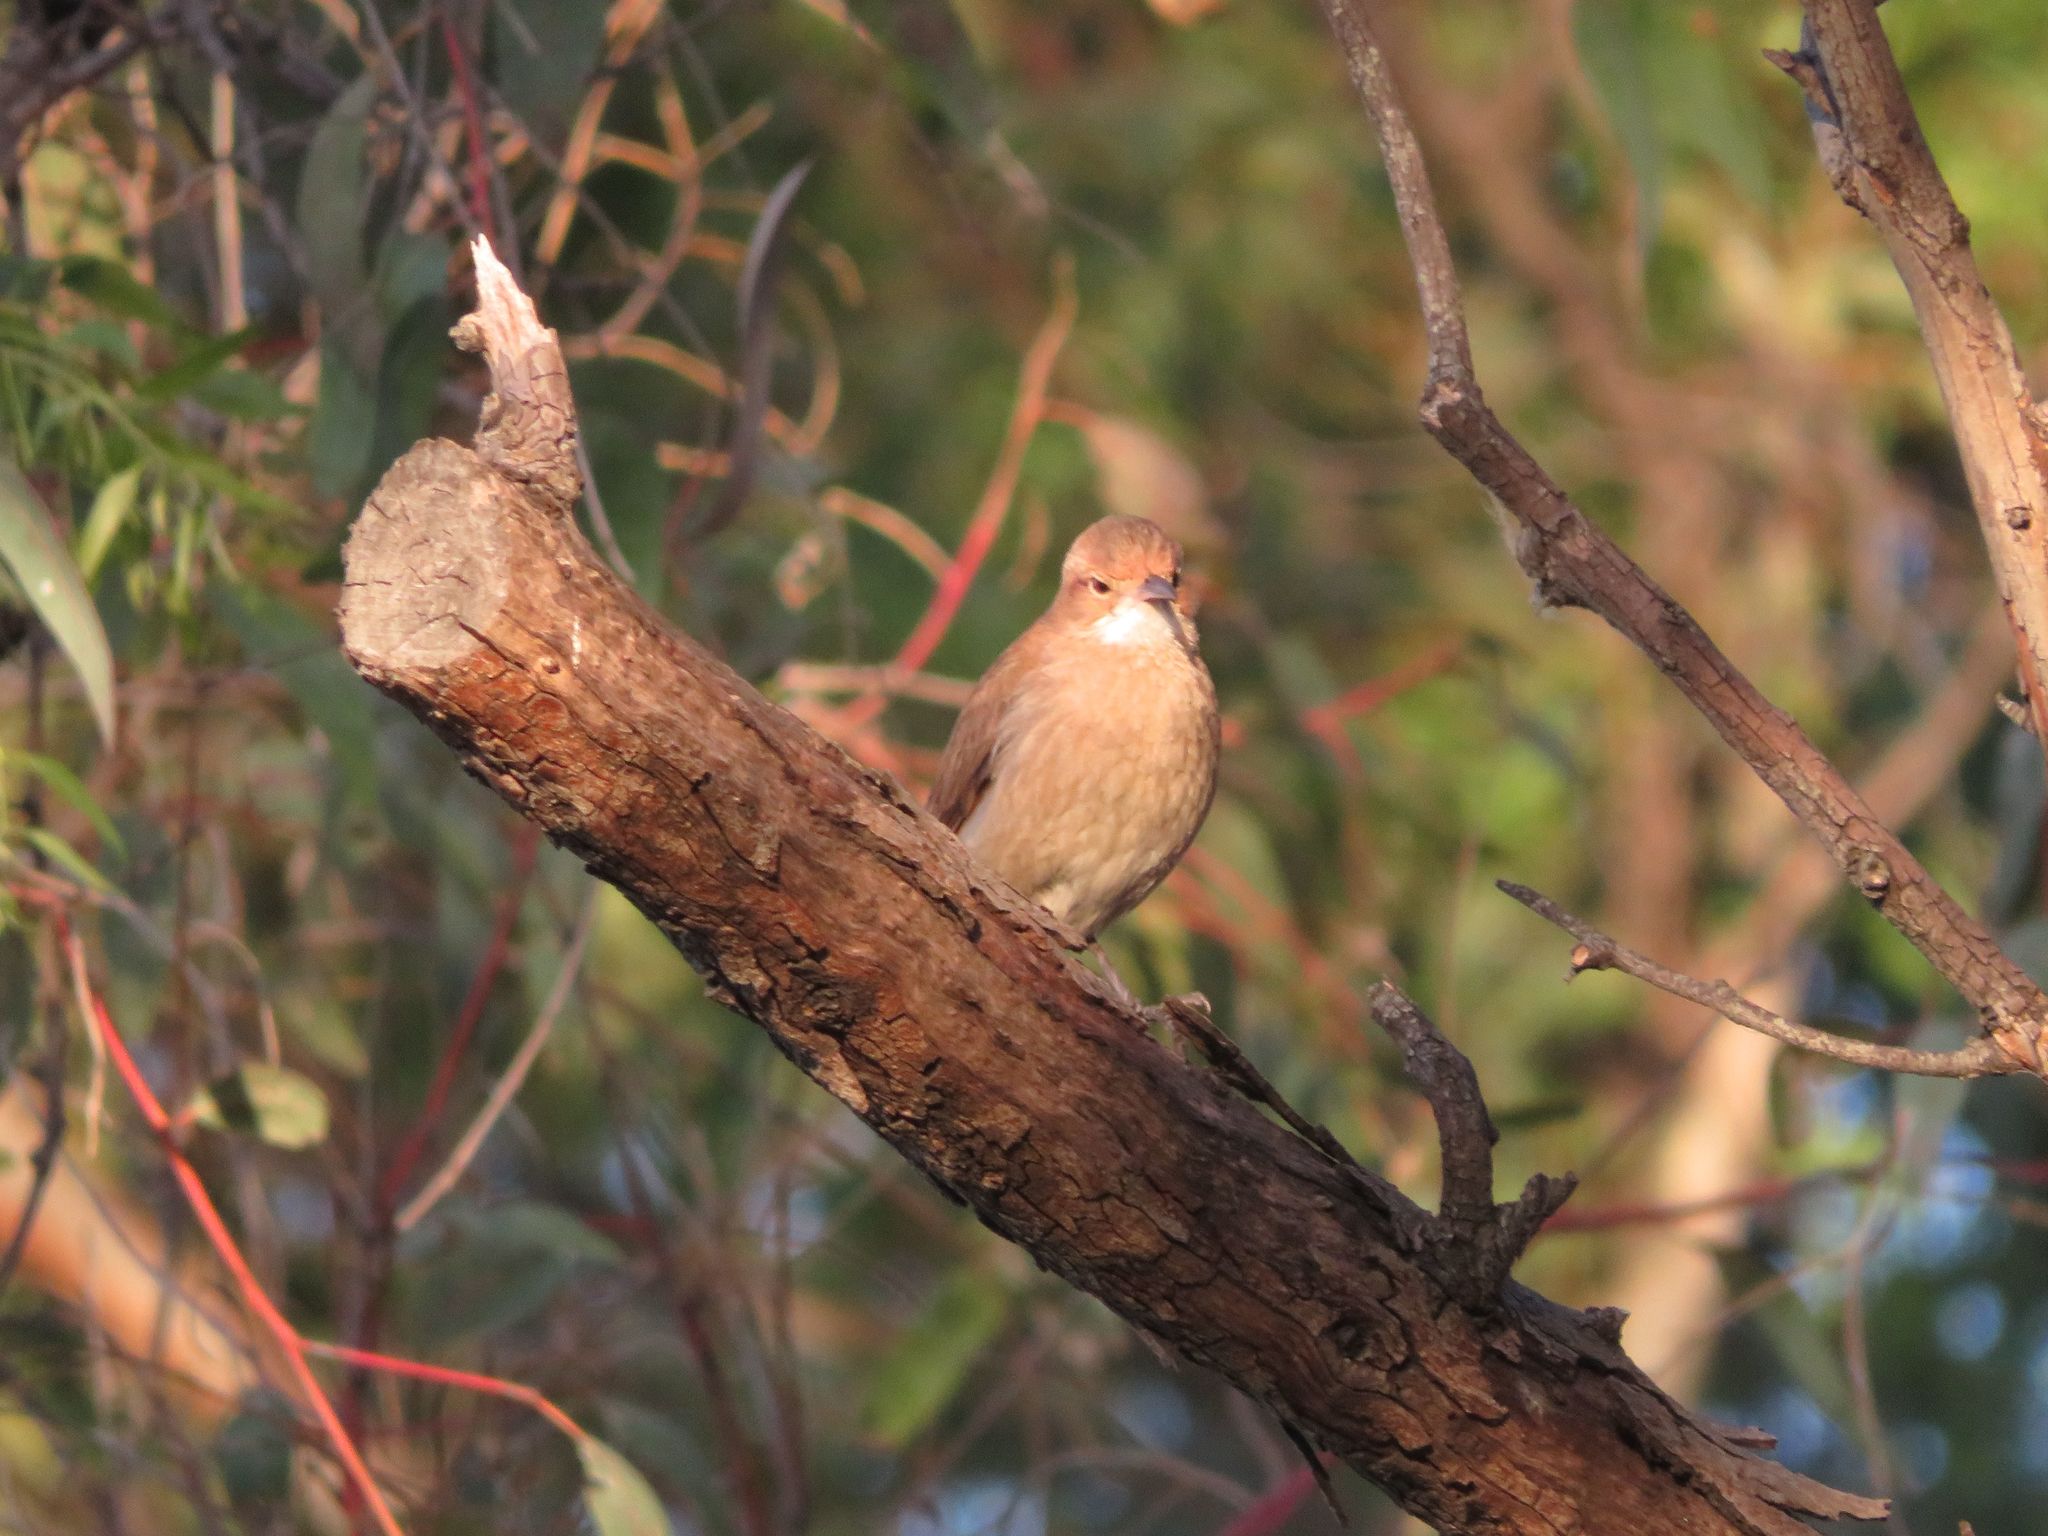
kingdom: Animalia
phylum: Chordata
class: Aves
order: Passeriformes
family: Furnariidae
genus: Furnarius
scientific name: Furnarius rufus
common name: Rufous hornero
